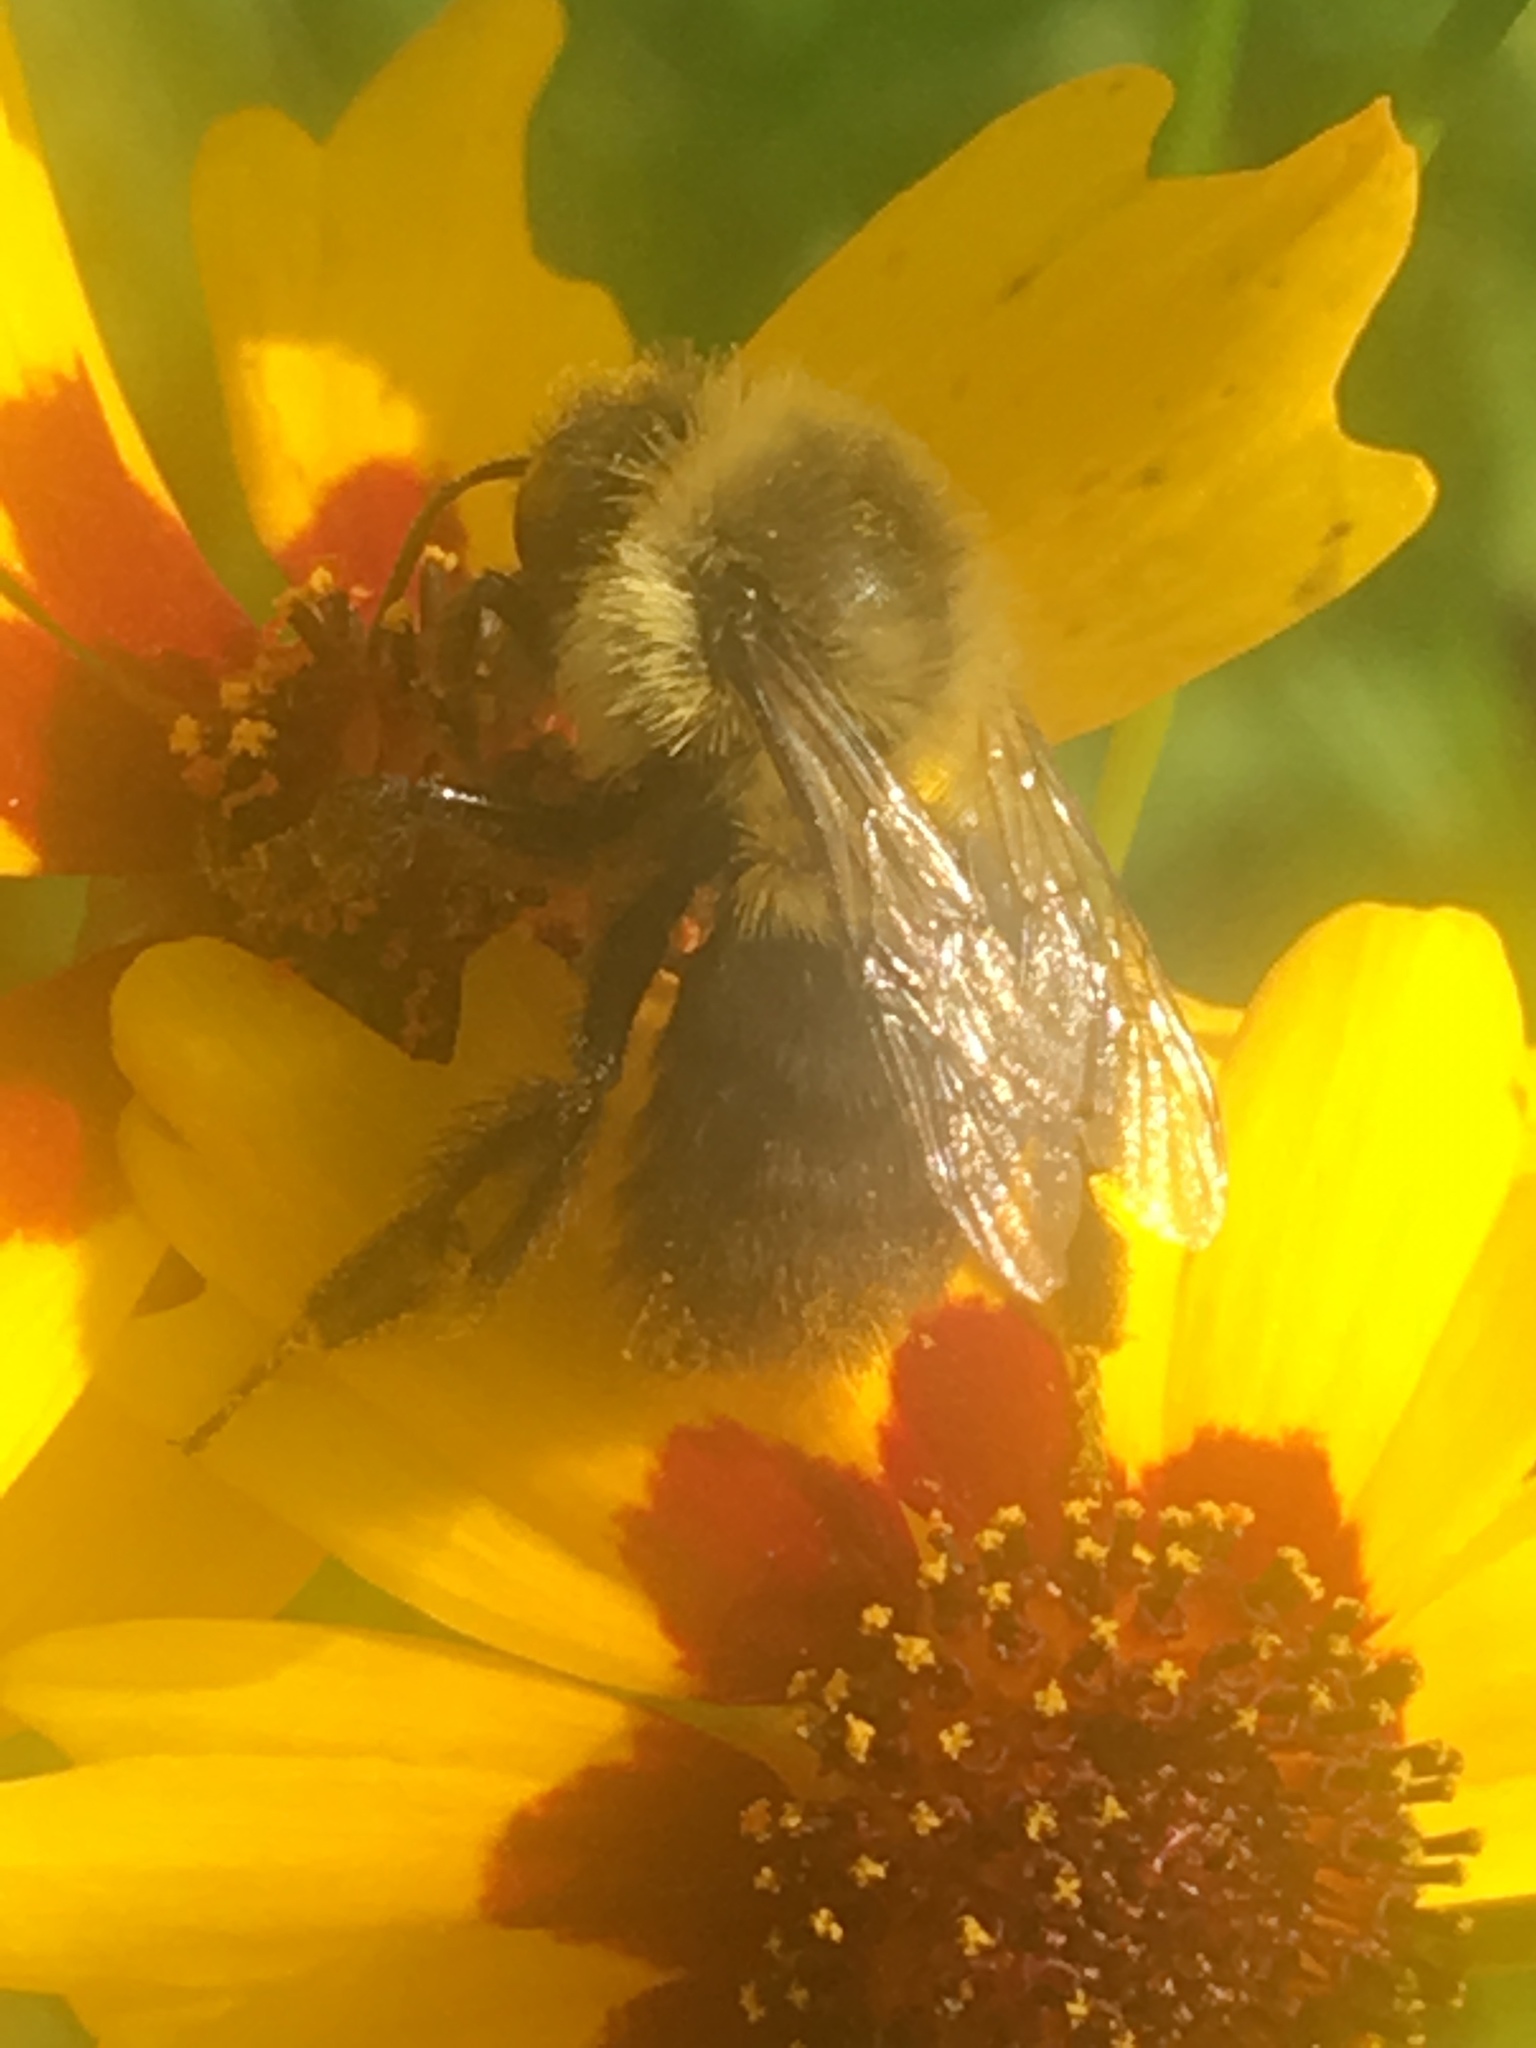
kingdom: Animalia
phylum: Arthropoda
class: Insecta
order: Hymenoptera
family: Apidae
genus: Bombus
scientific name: Bombus impatiens
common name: Common eastern bumble bee
